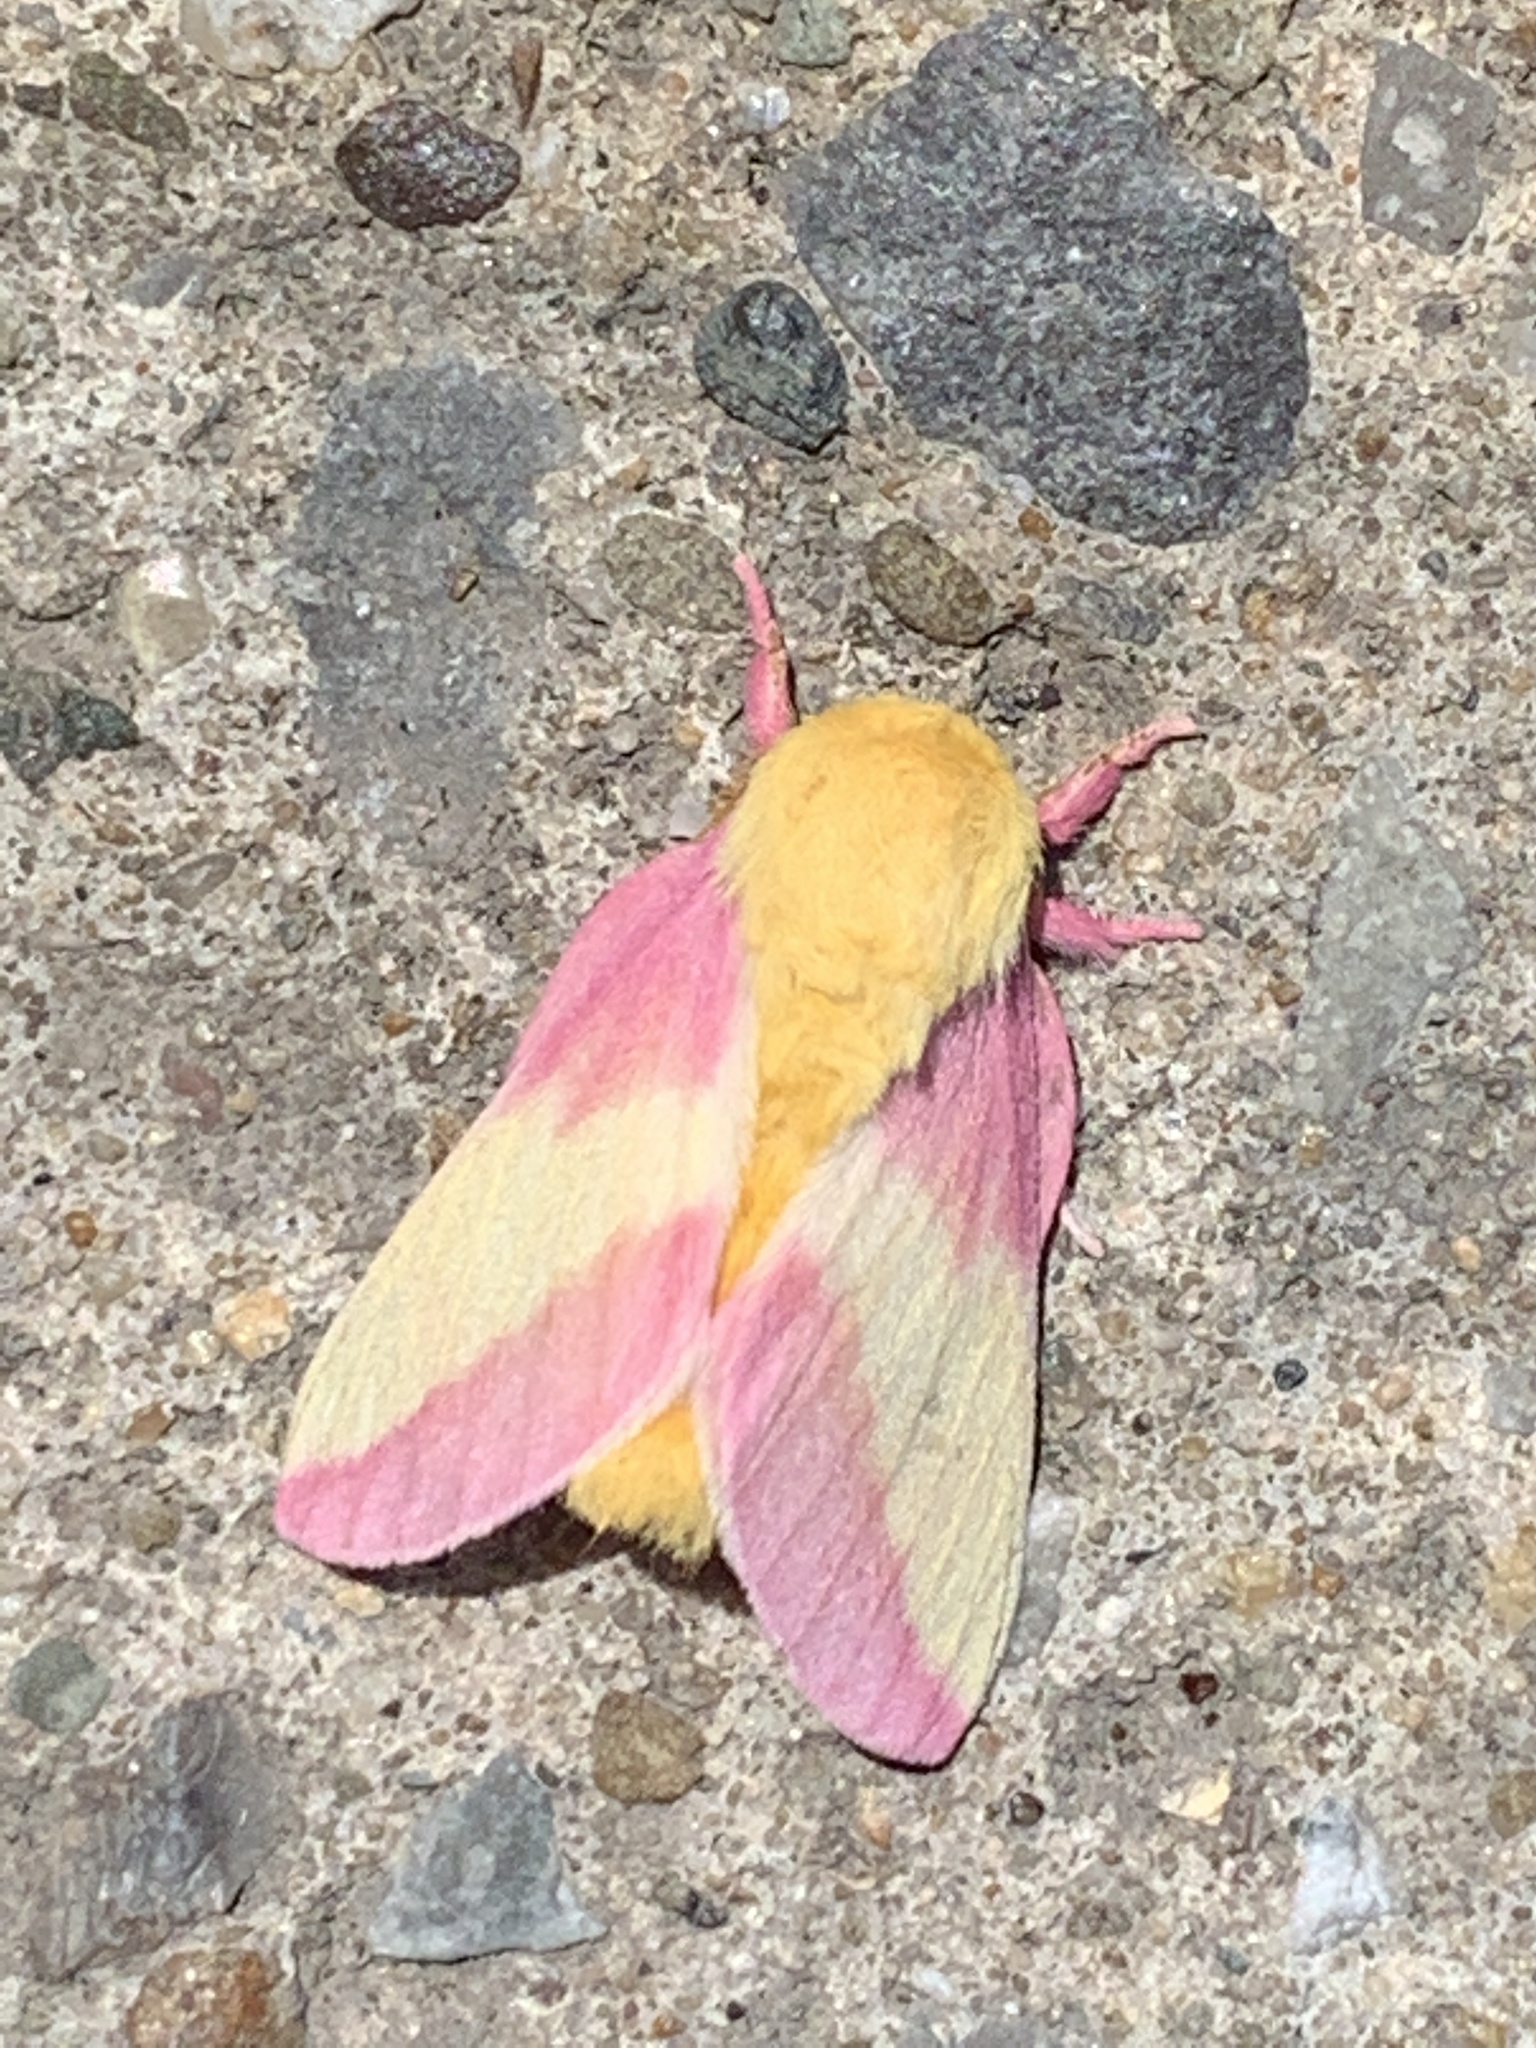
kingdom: Animalia
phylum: Arthropoda
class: Insecta
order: Lepidoptera
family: Saturniidae
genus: Dryocampa
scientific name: Dryocampa rubicunda
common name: Rosy maple moth
